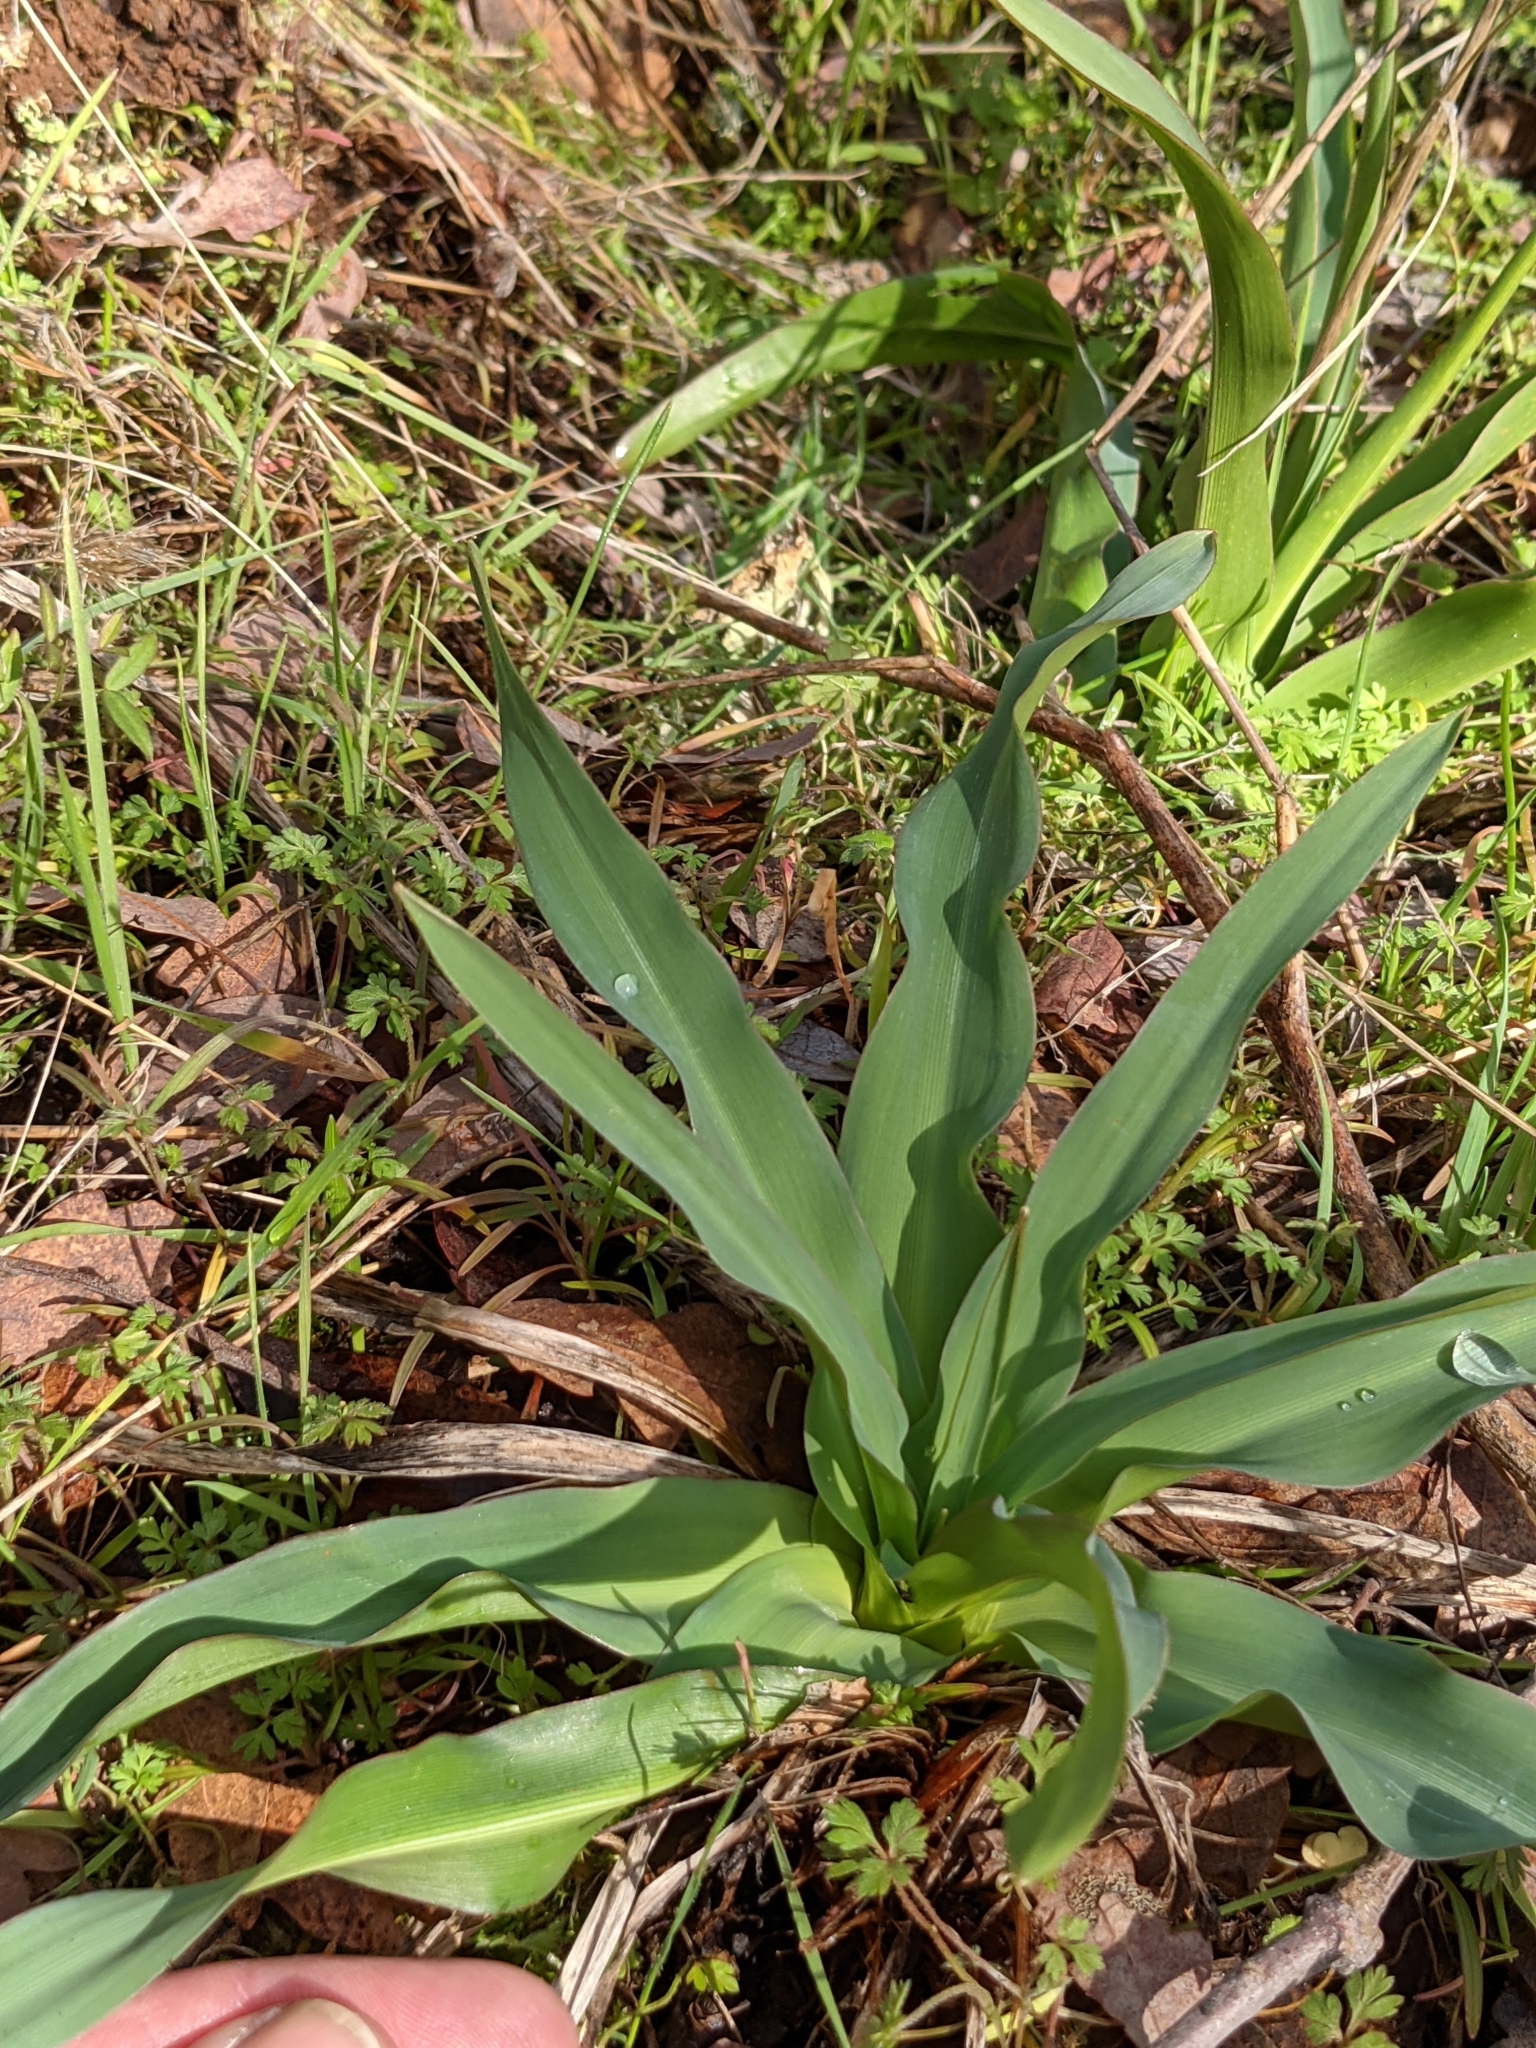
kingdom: Plantae
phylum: Tracheophyta
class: Liliopsida
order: Asparagales
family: Asparagaceae
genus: Chlorogalum
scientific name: Chlorogalum pomeridianum
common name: Amole
